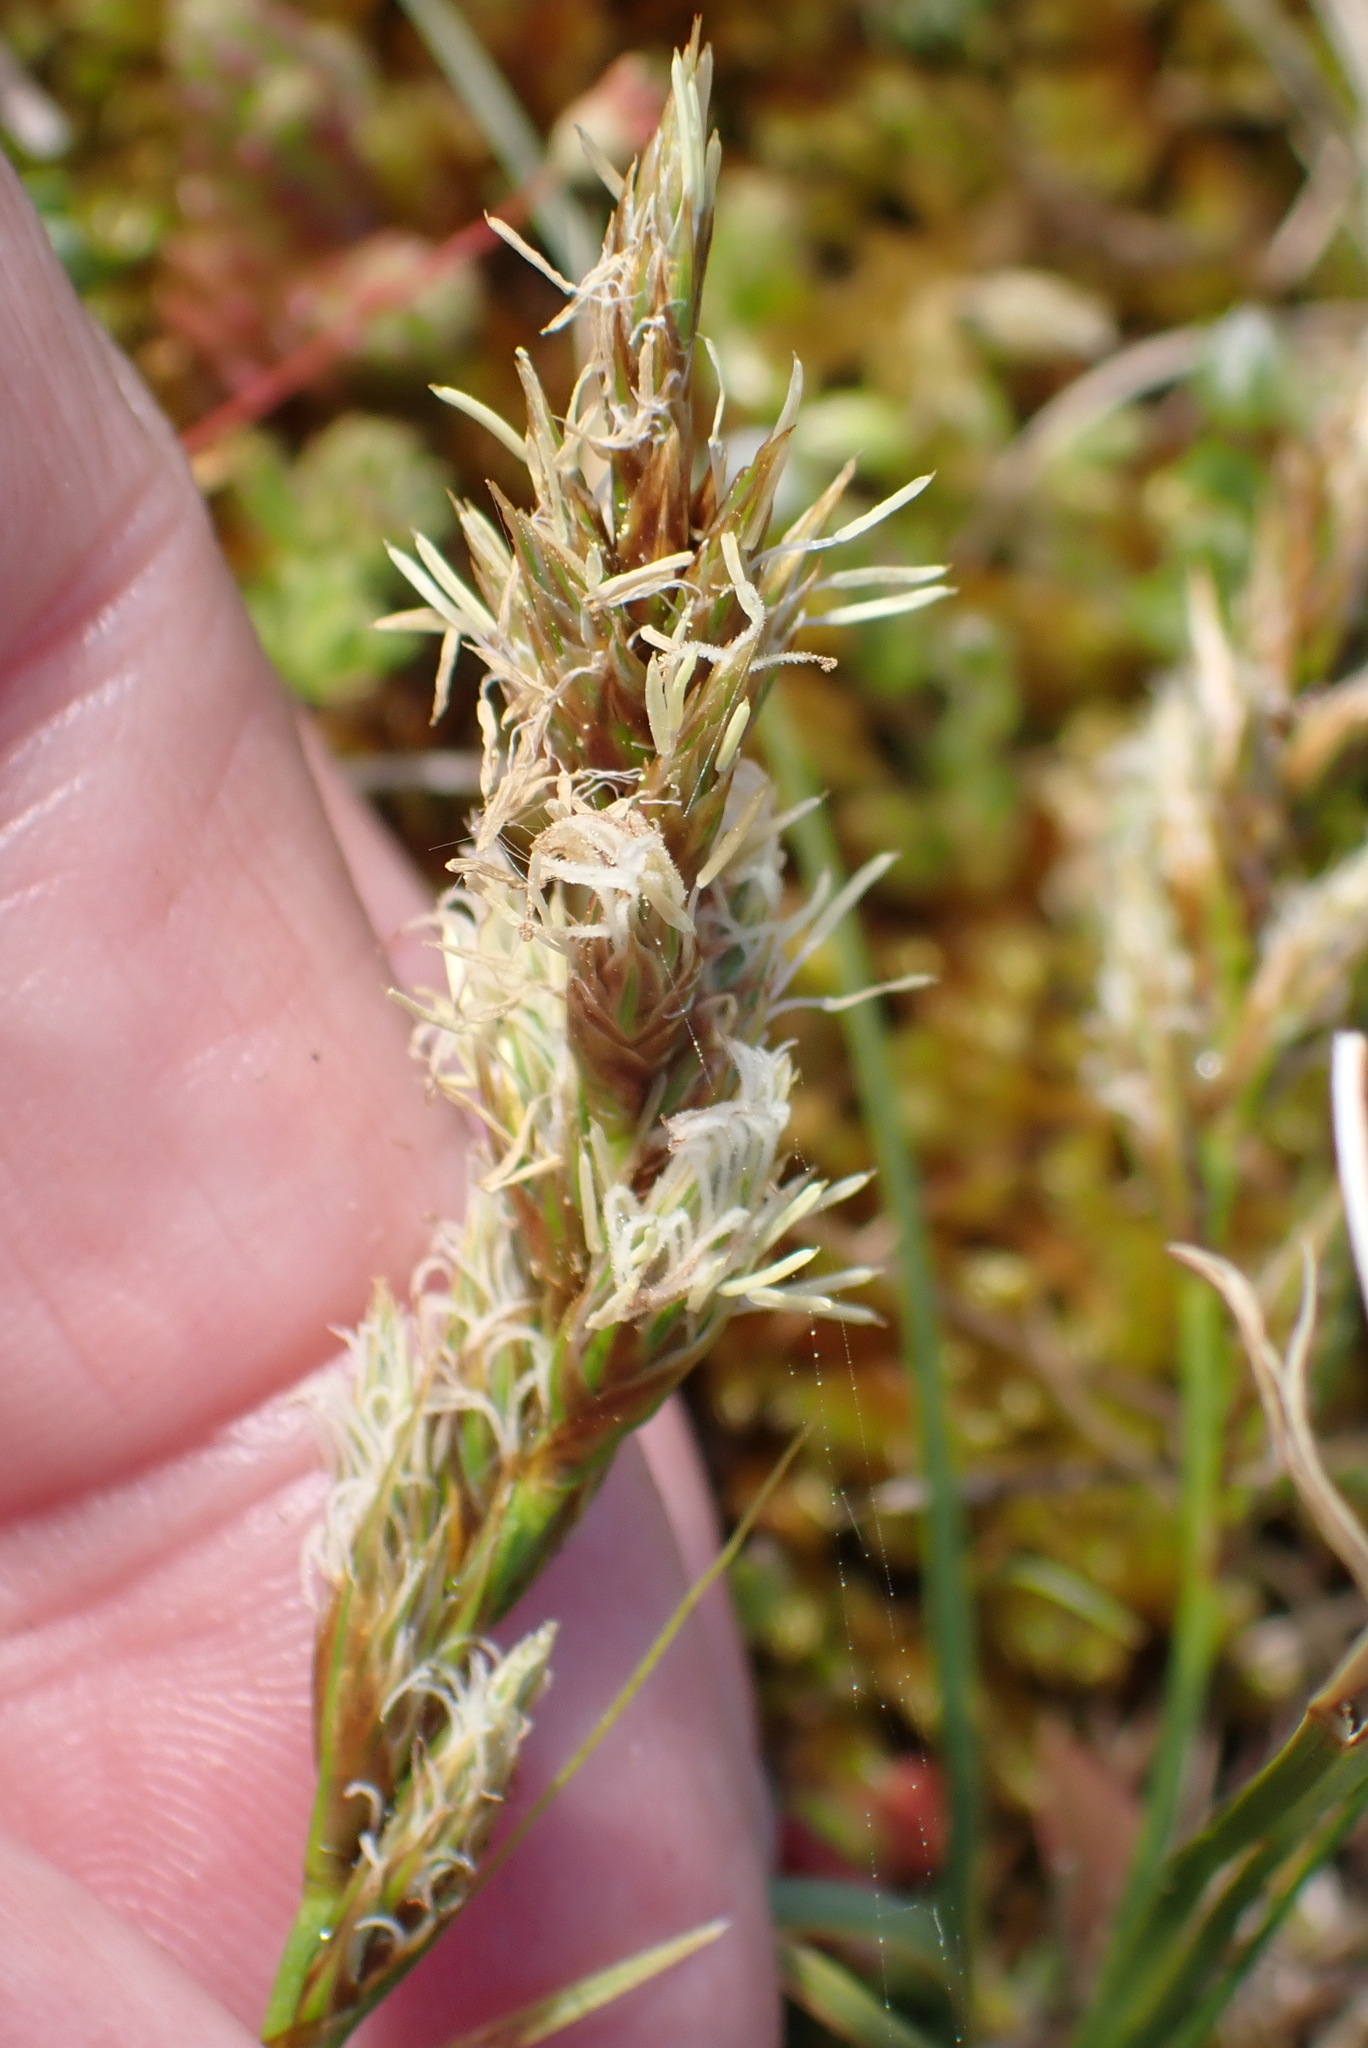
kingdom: Plantae
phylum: Tracheophyta
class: Liliopsida
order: Poales
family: Cyperaceae
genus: Carex
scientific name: Carex arenaria
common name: Sand sedge
